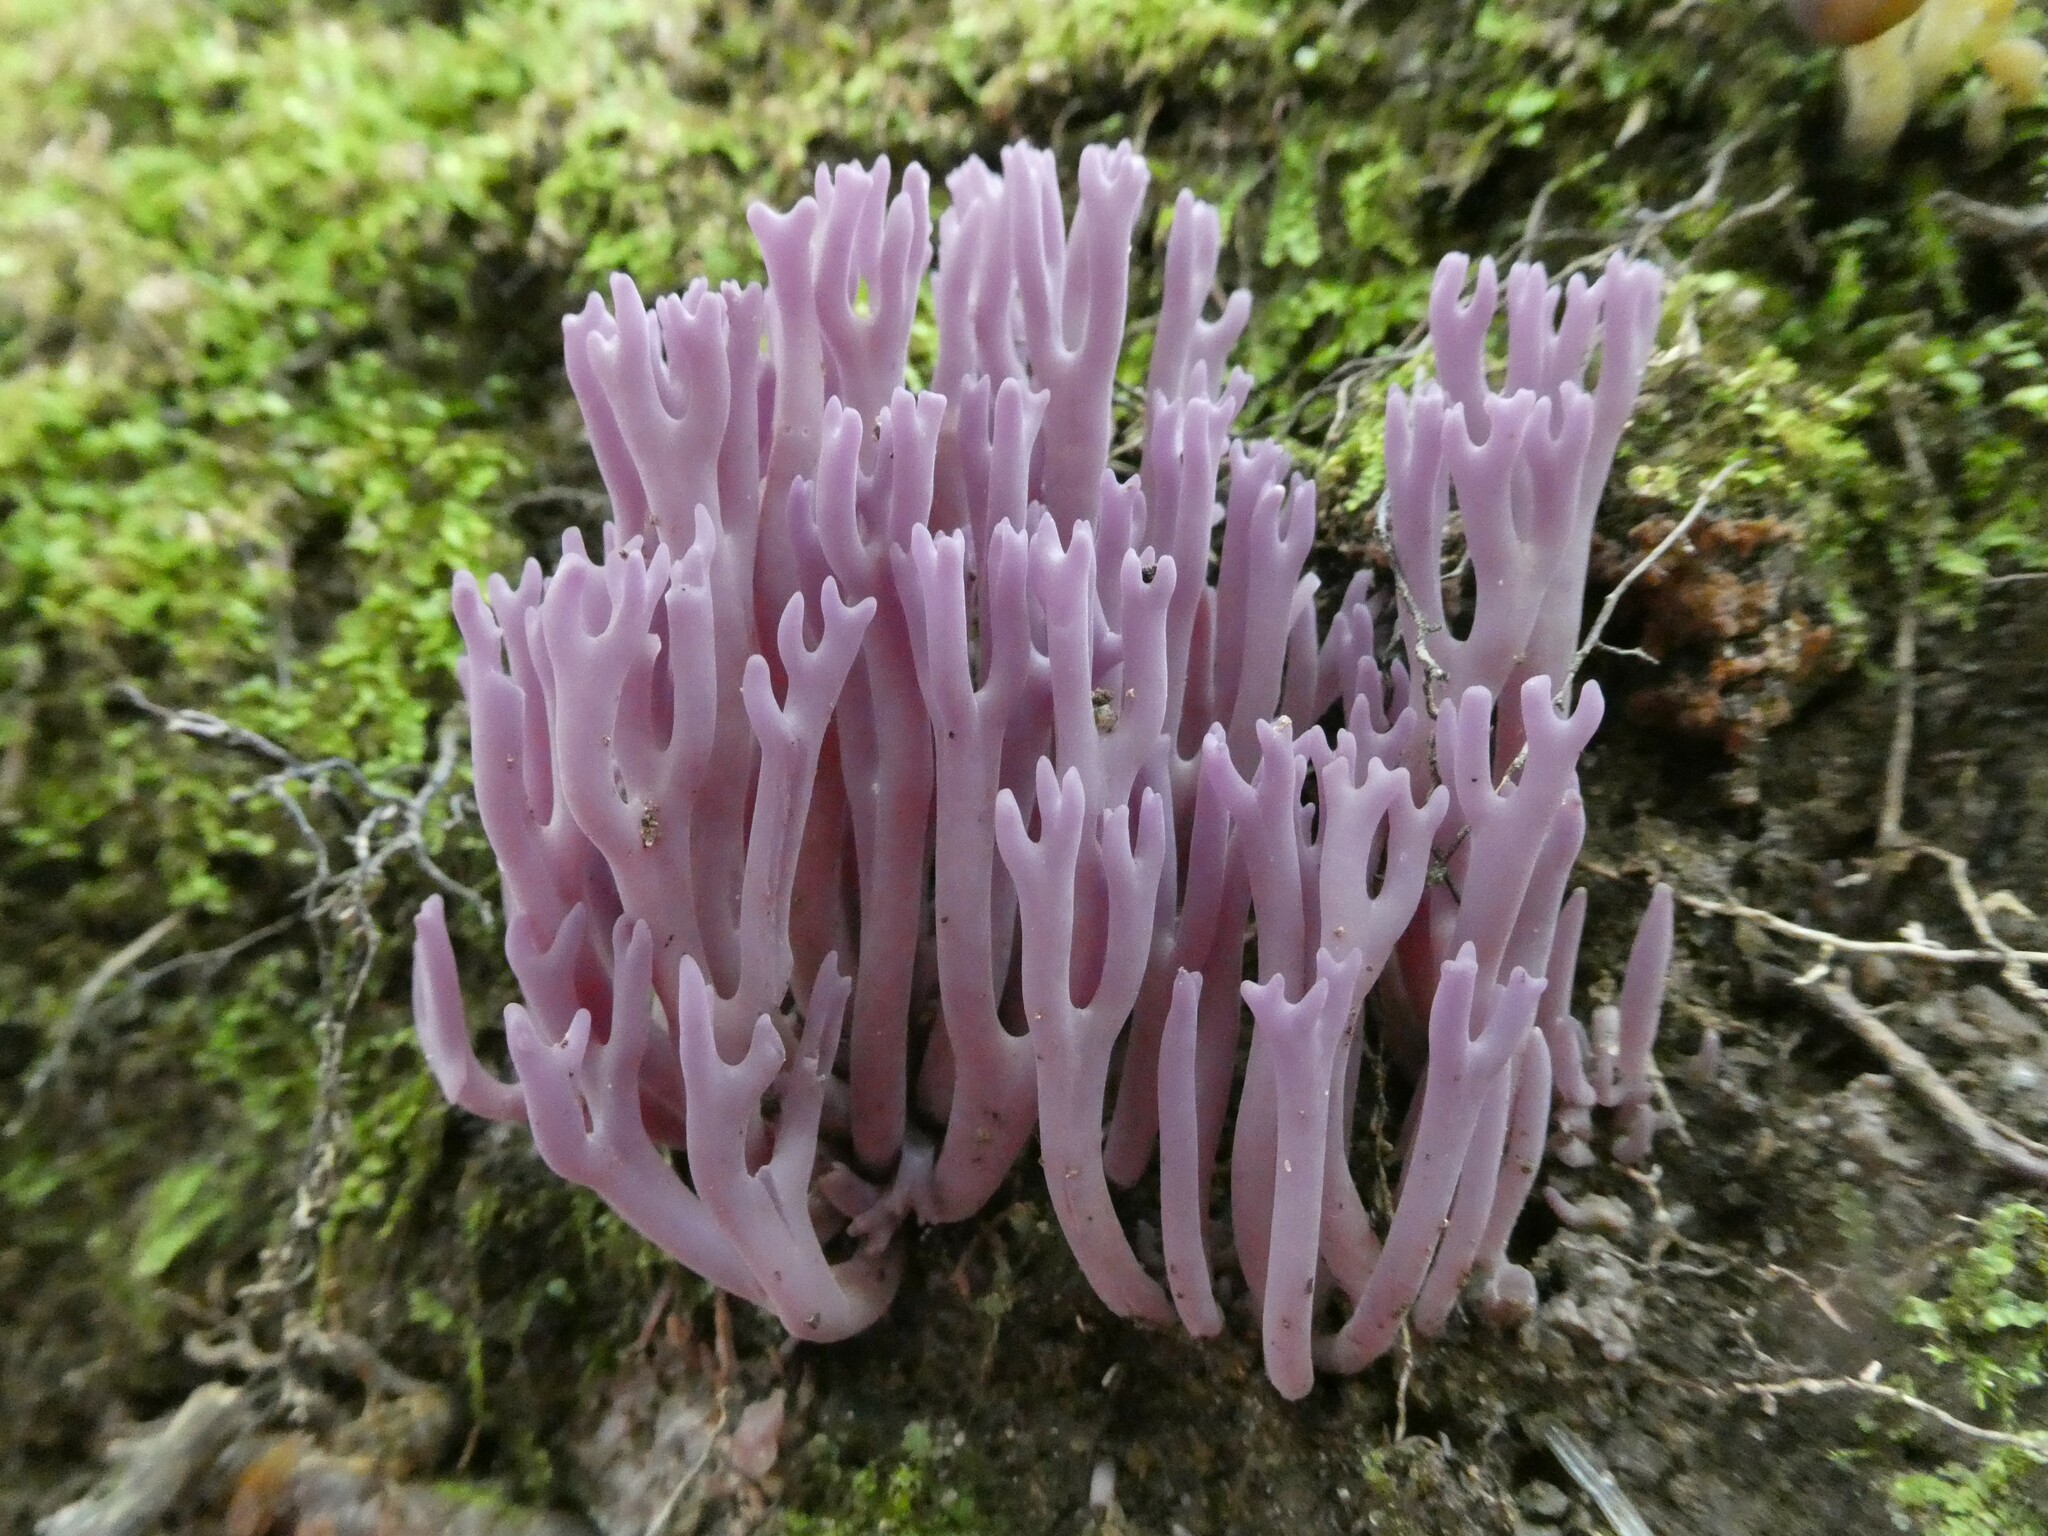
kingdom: Fungi
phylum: Basidiomycota
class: Agaricomycetes
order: Agaricales
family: Clavariaceae
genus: Clavaria
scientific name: Clavaria zollingeri
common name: Violet coral
